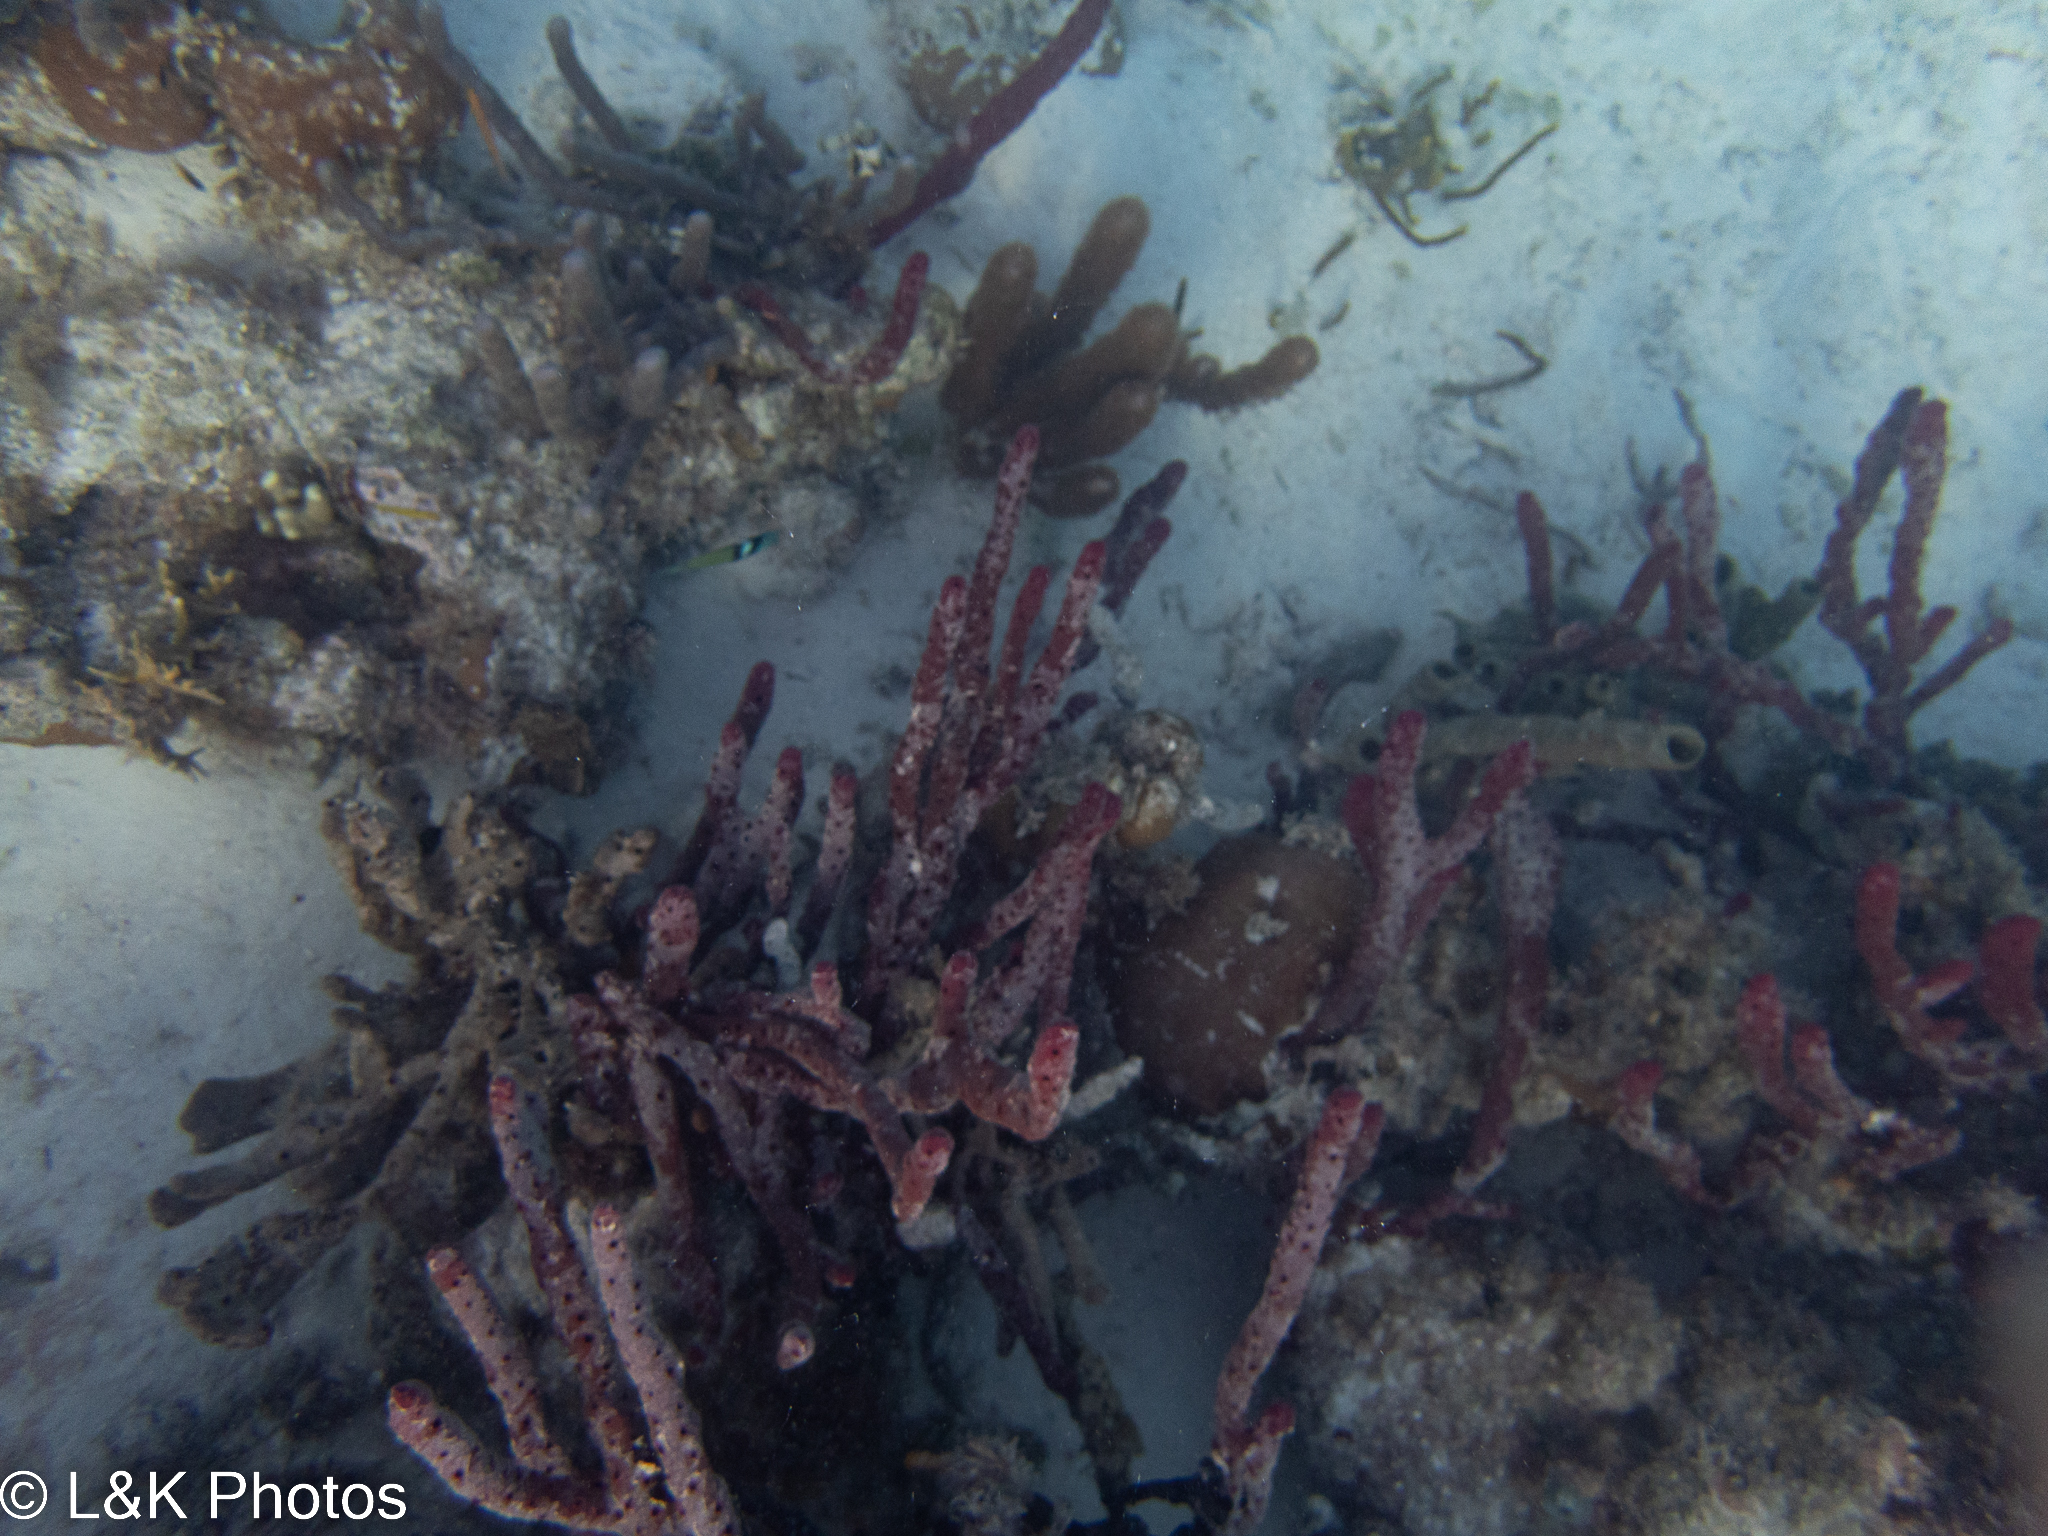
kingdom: Animalia
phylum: Porifera
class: Demospongiae
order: Haplosclerida
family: Niphatidae
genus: Amphimedon
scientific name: Amphimedon compressa
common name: Red sponge
